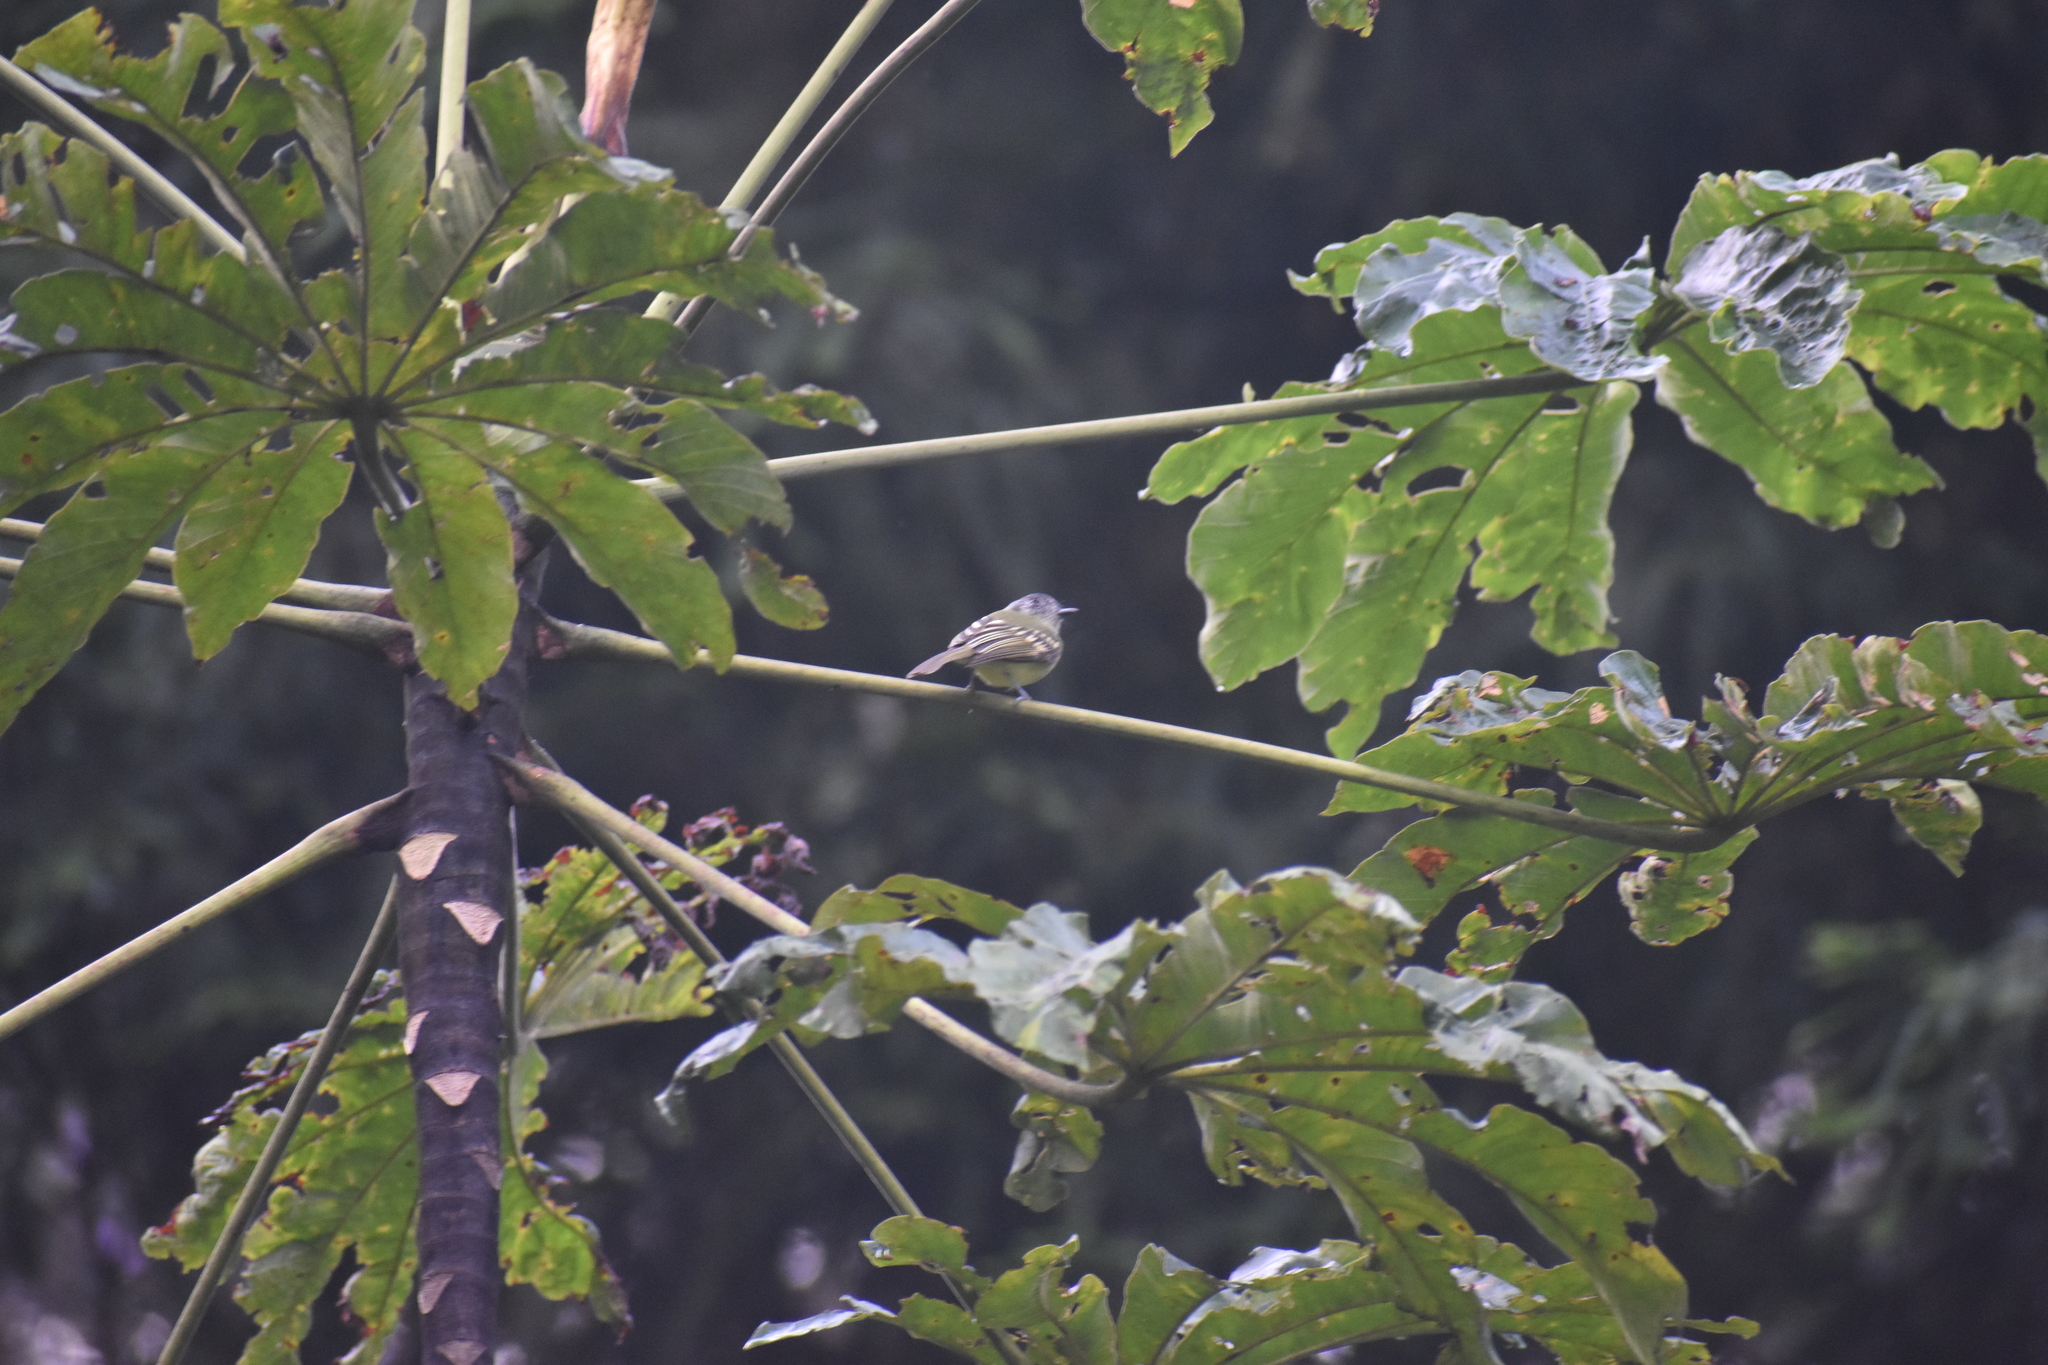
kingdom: Animalia
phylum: Chordata
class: Aves
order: Passeriformes
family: Tyrannidae
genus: Leptopogon
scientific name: Leptopogon superciliaris
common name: Slaty-capped flycatcher
